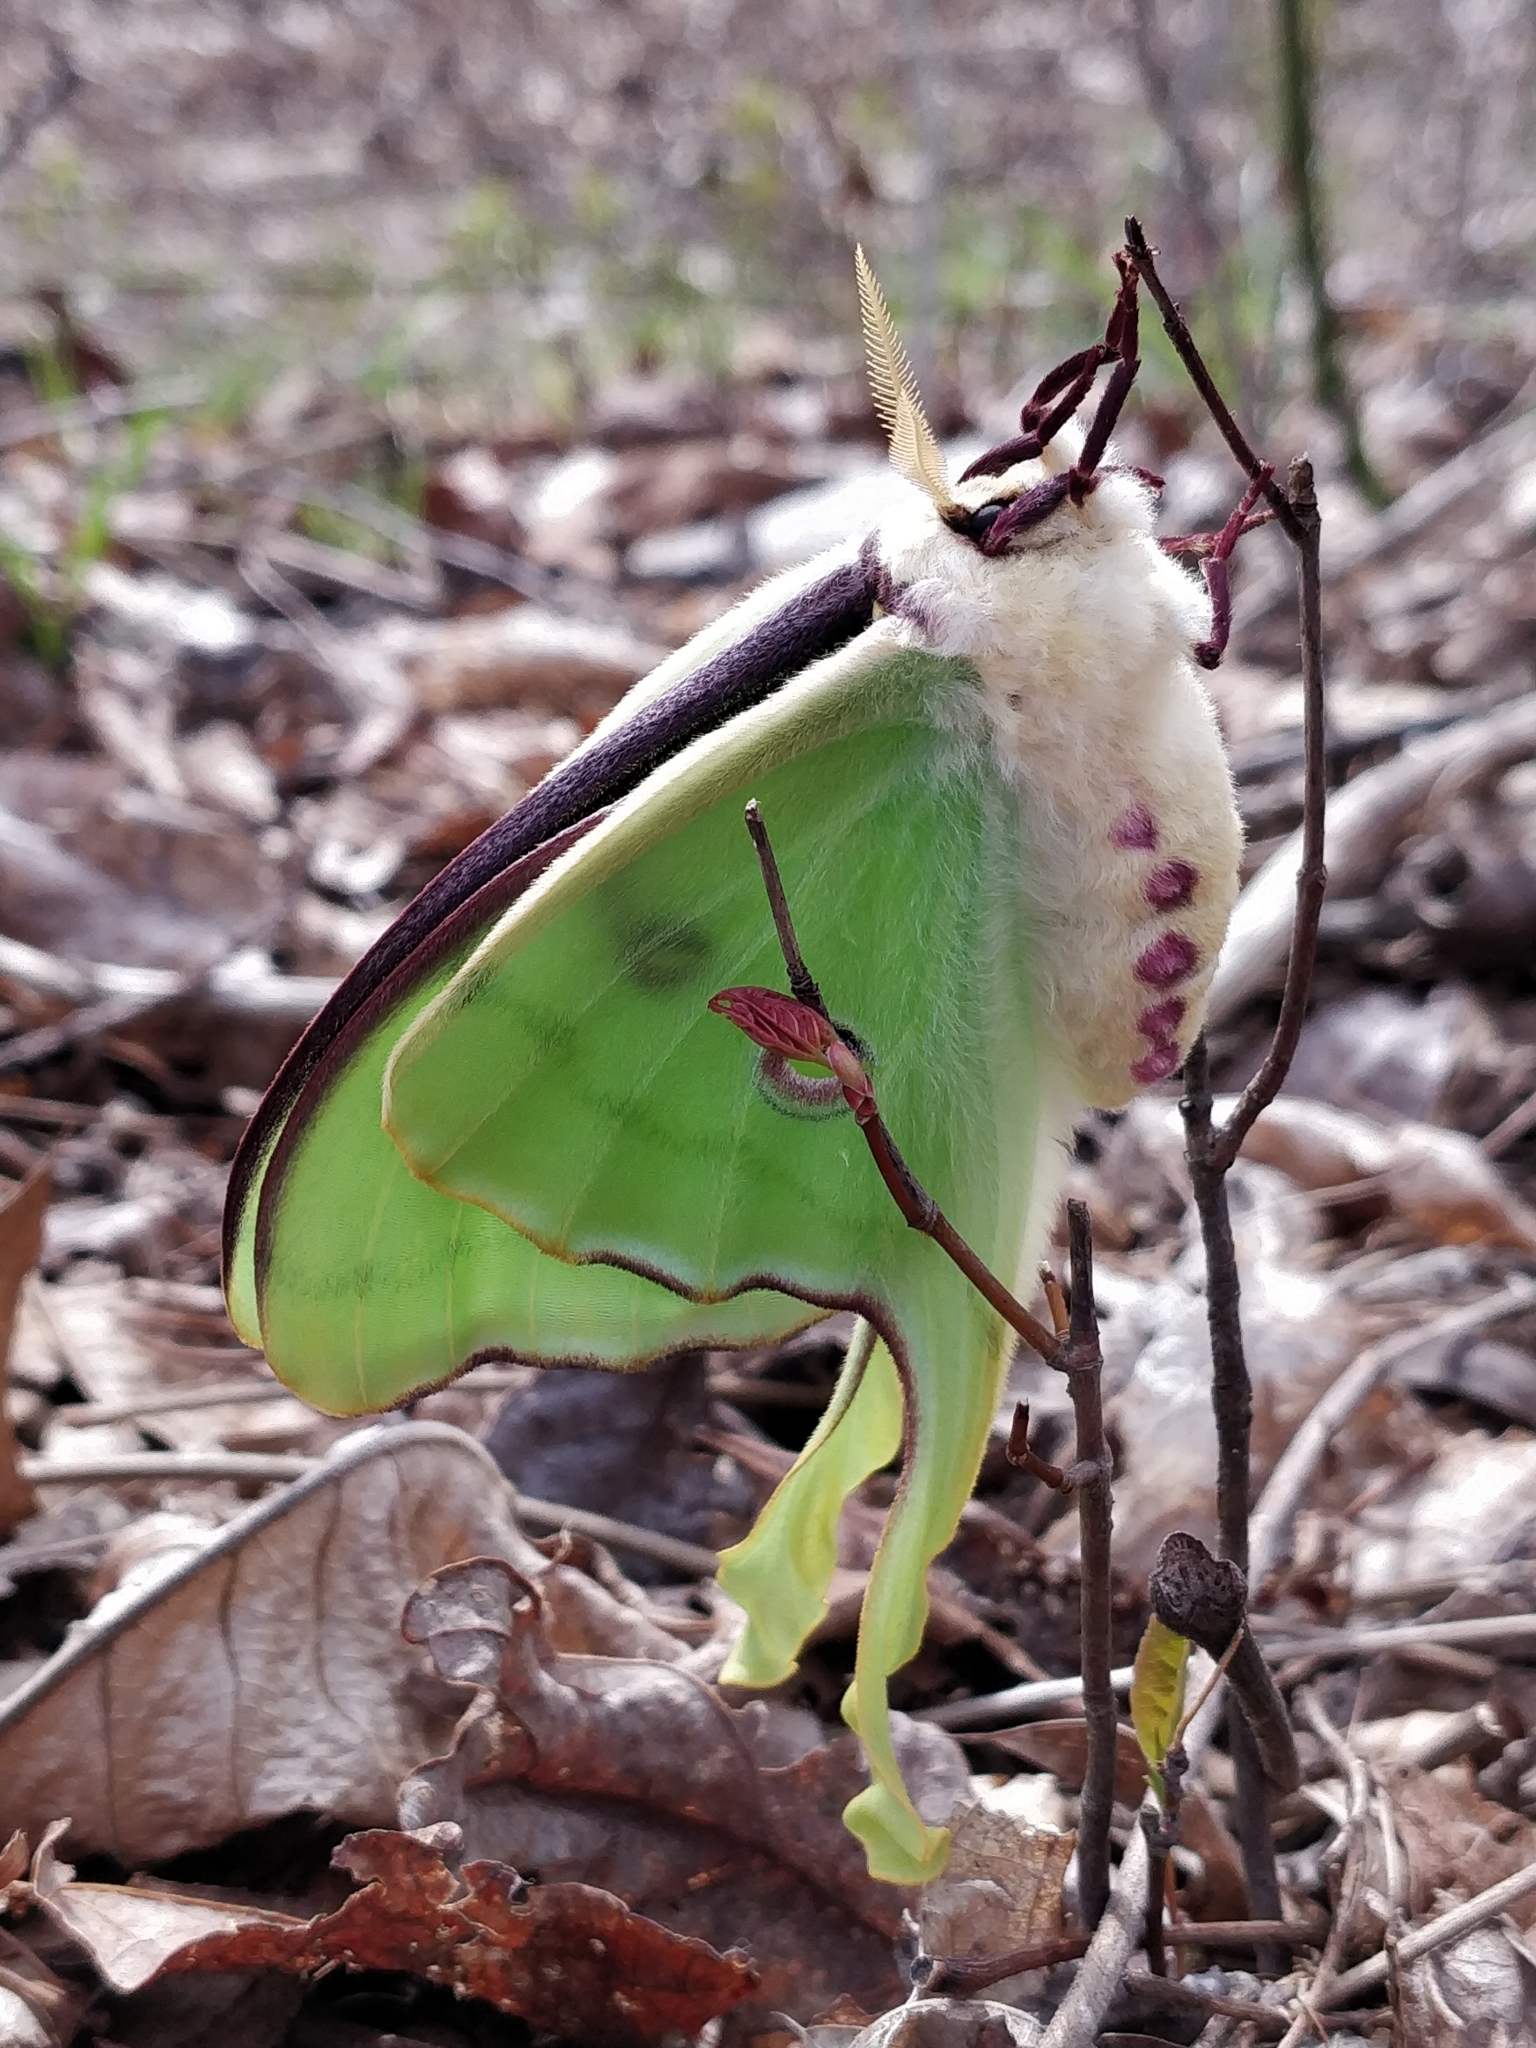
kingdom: Animalia
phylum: Arthropoda
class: Insecta
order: Lepidoptera
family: Saturniidae
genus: Actias
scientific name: Actias luna
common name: Luna moth
